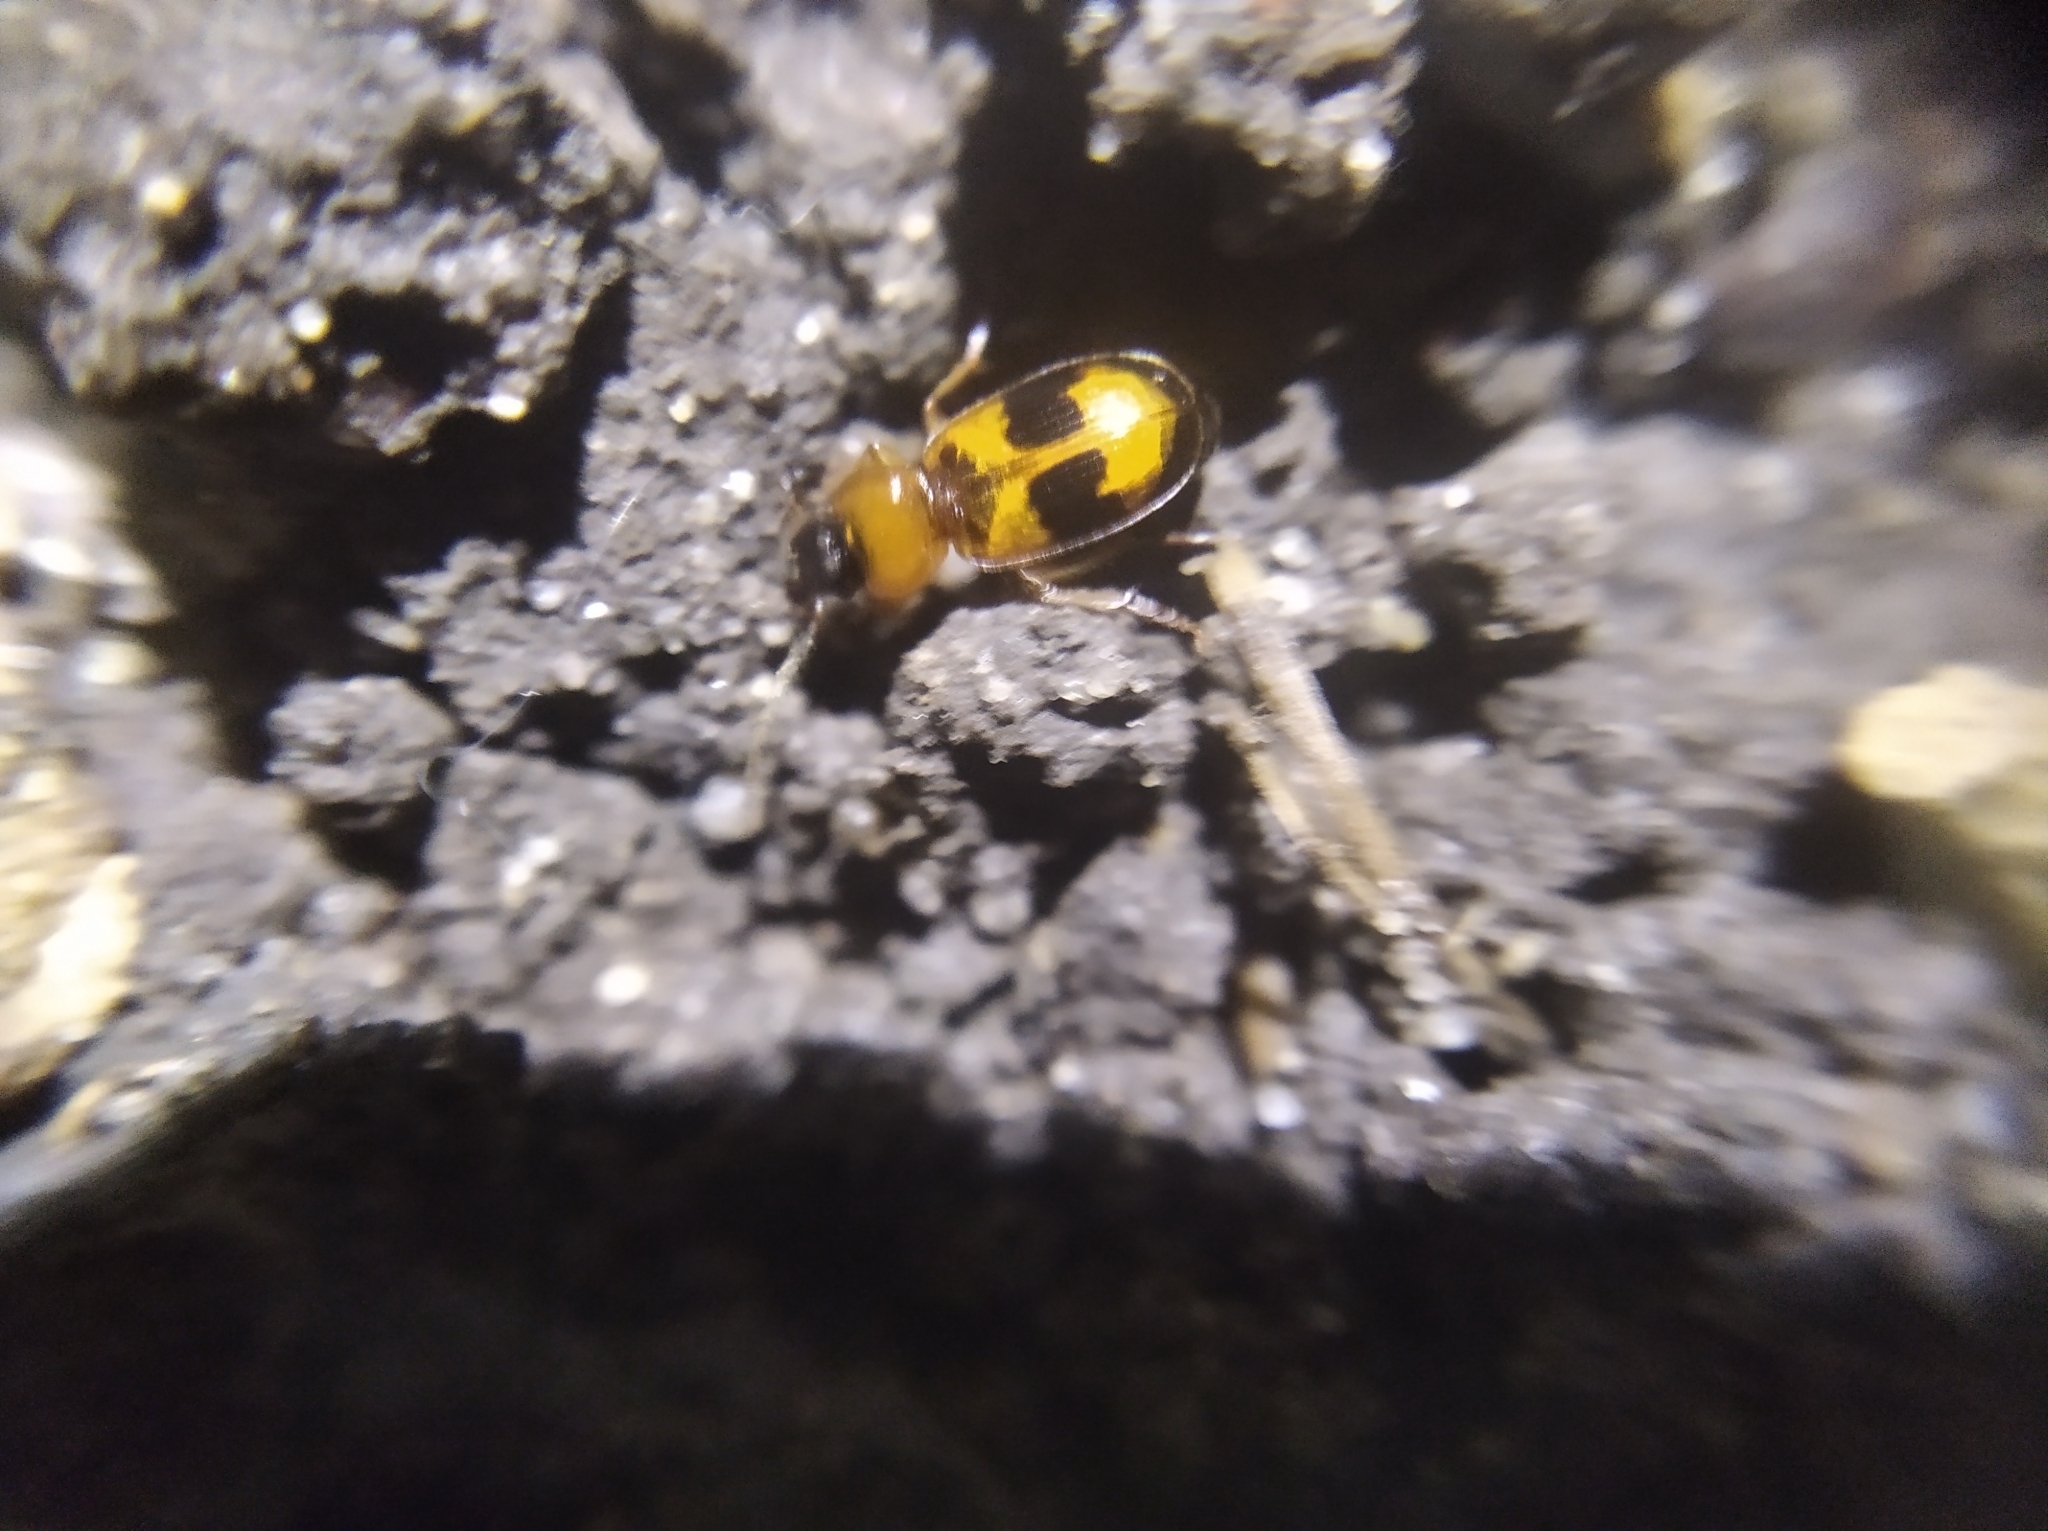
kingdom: Animalia
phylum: Arthropoda
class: Insecta
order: Coleoptera
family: Carabidae
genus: Badister
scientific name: Badister bullatus
